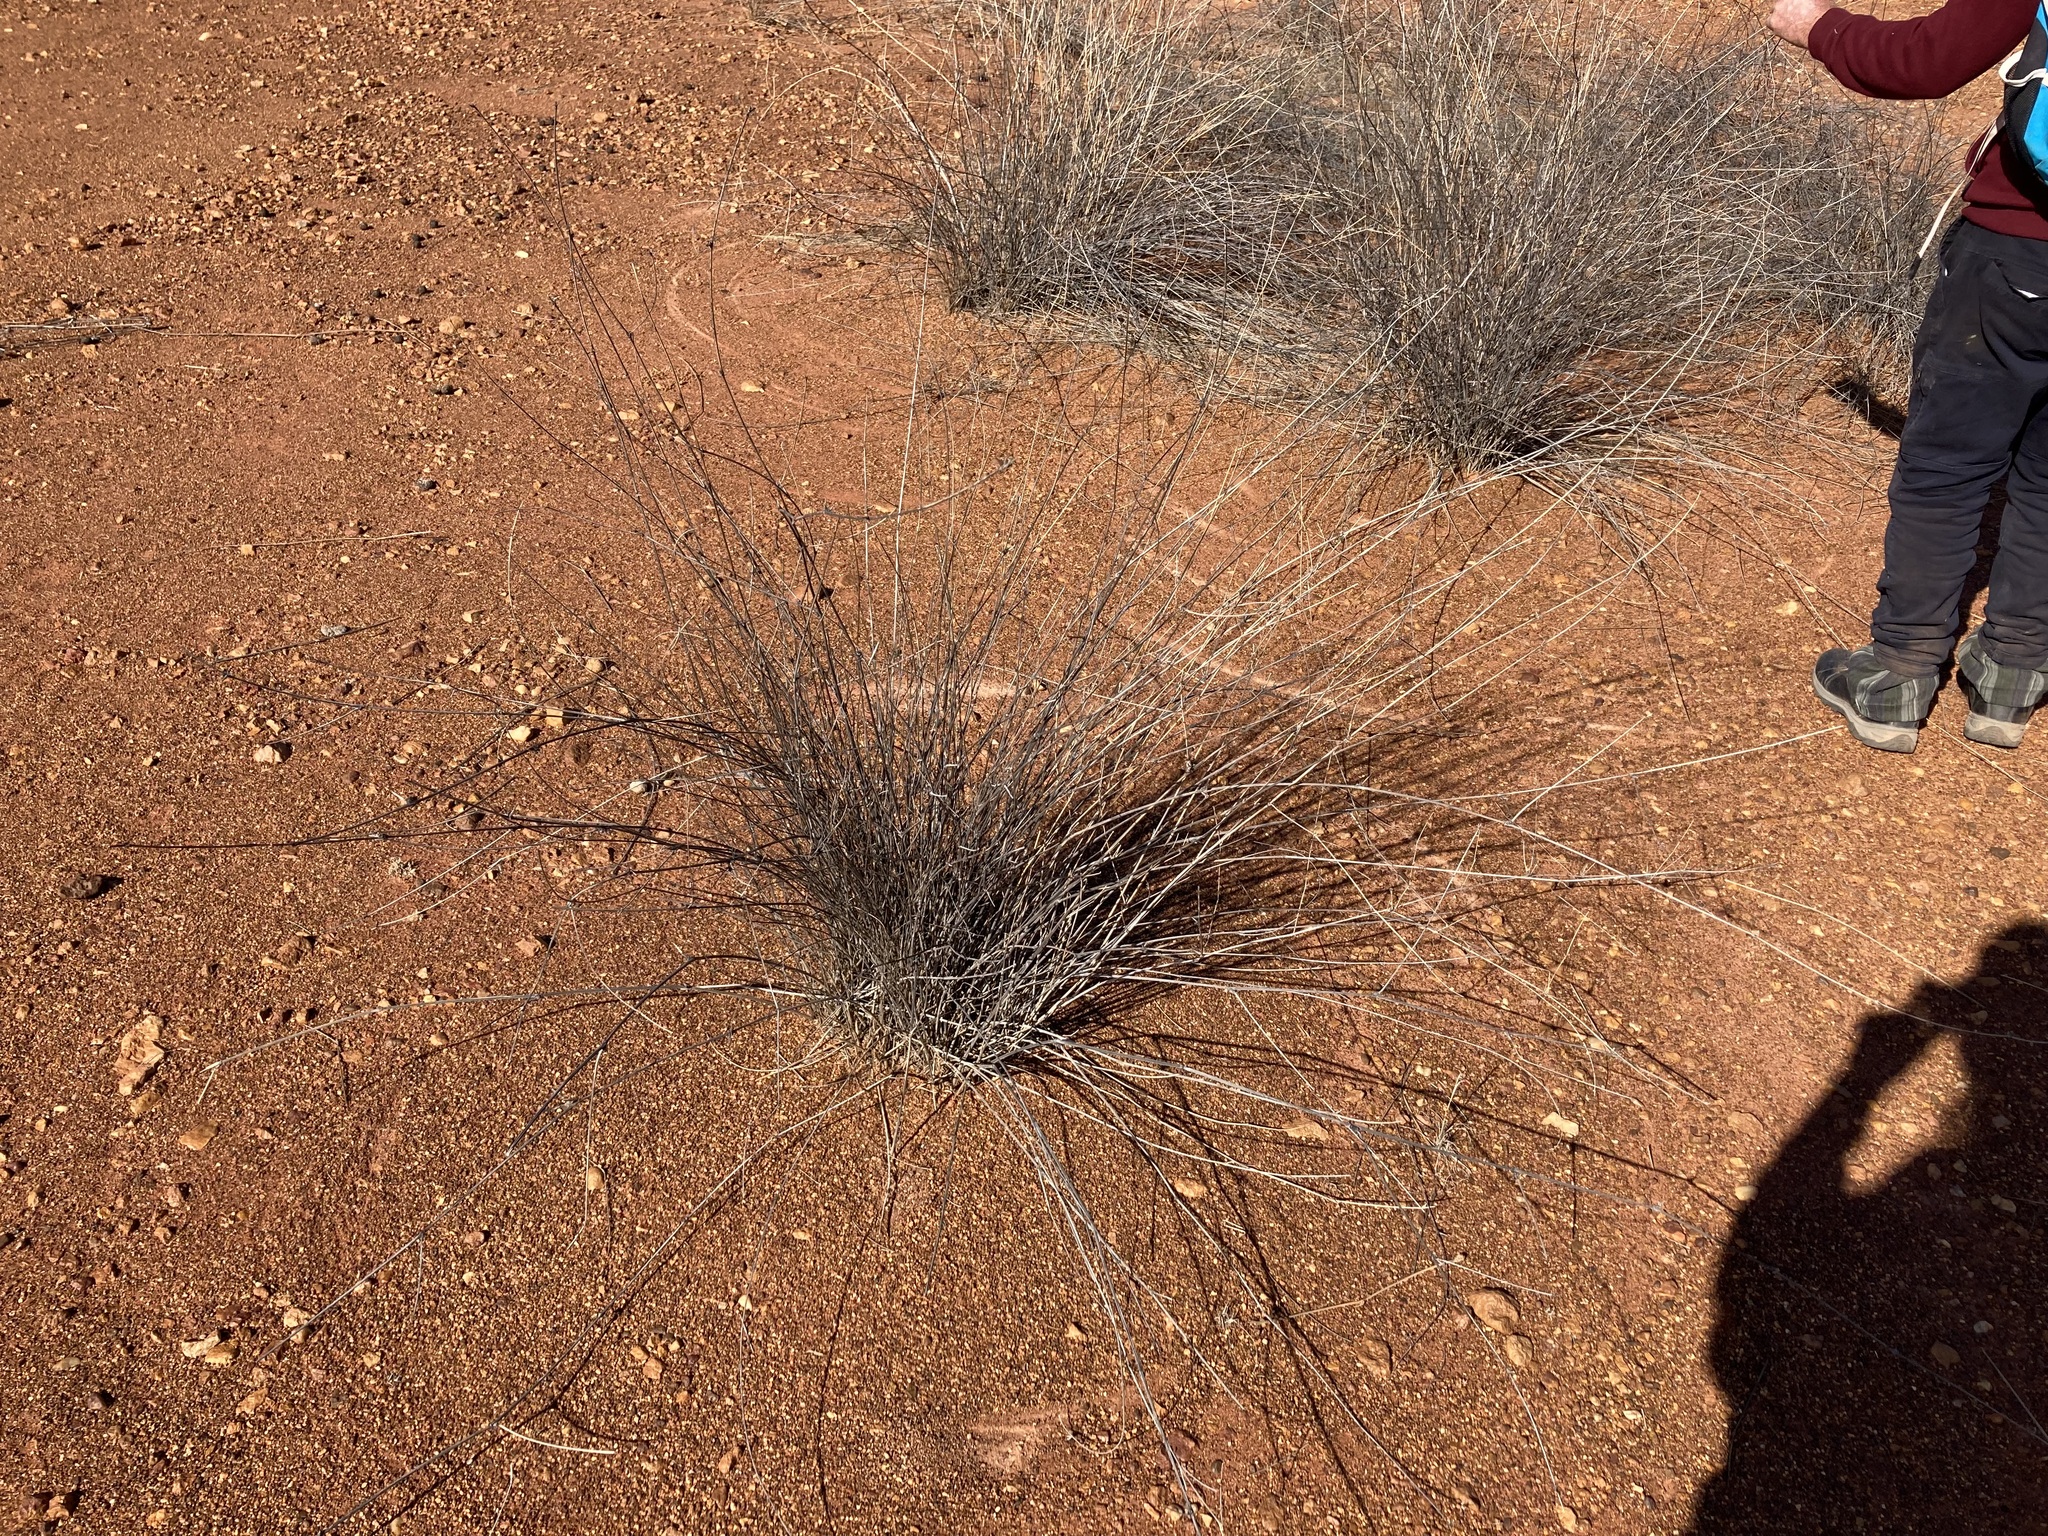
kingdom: Plantae
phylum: Tracheophyta
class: Liliopsida
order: Poales
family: Poaceae
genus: Sporobolus
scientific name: Sporobolus ramigerus
